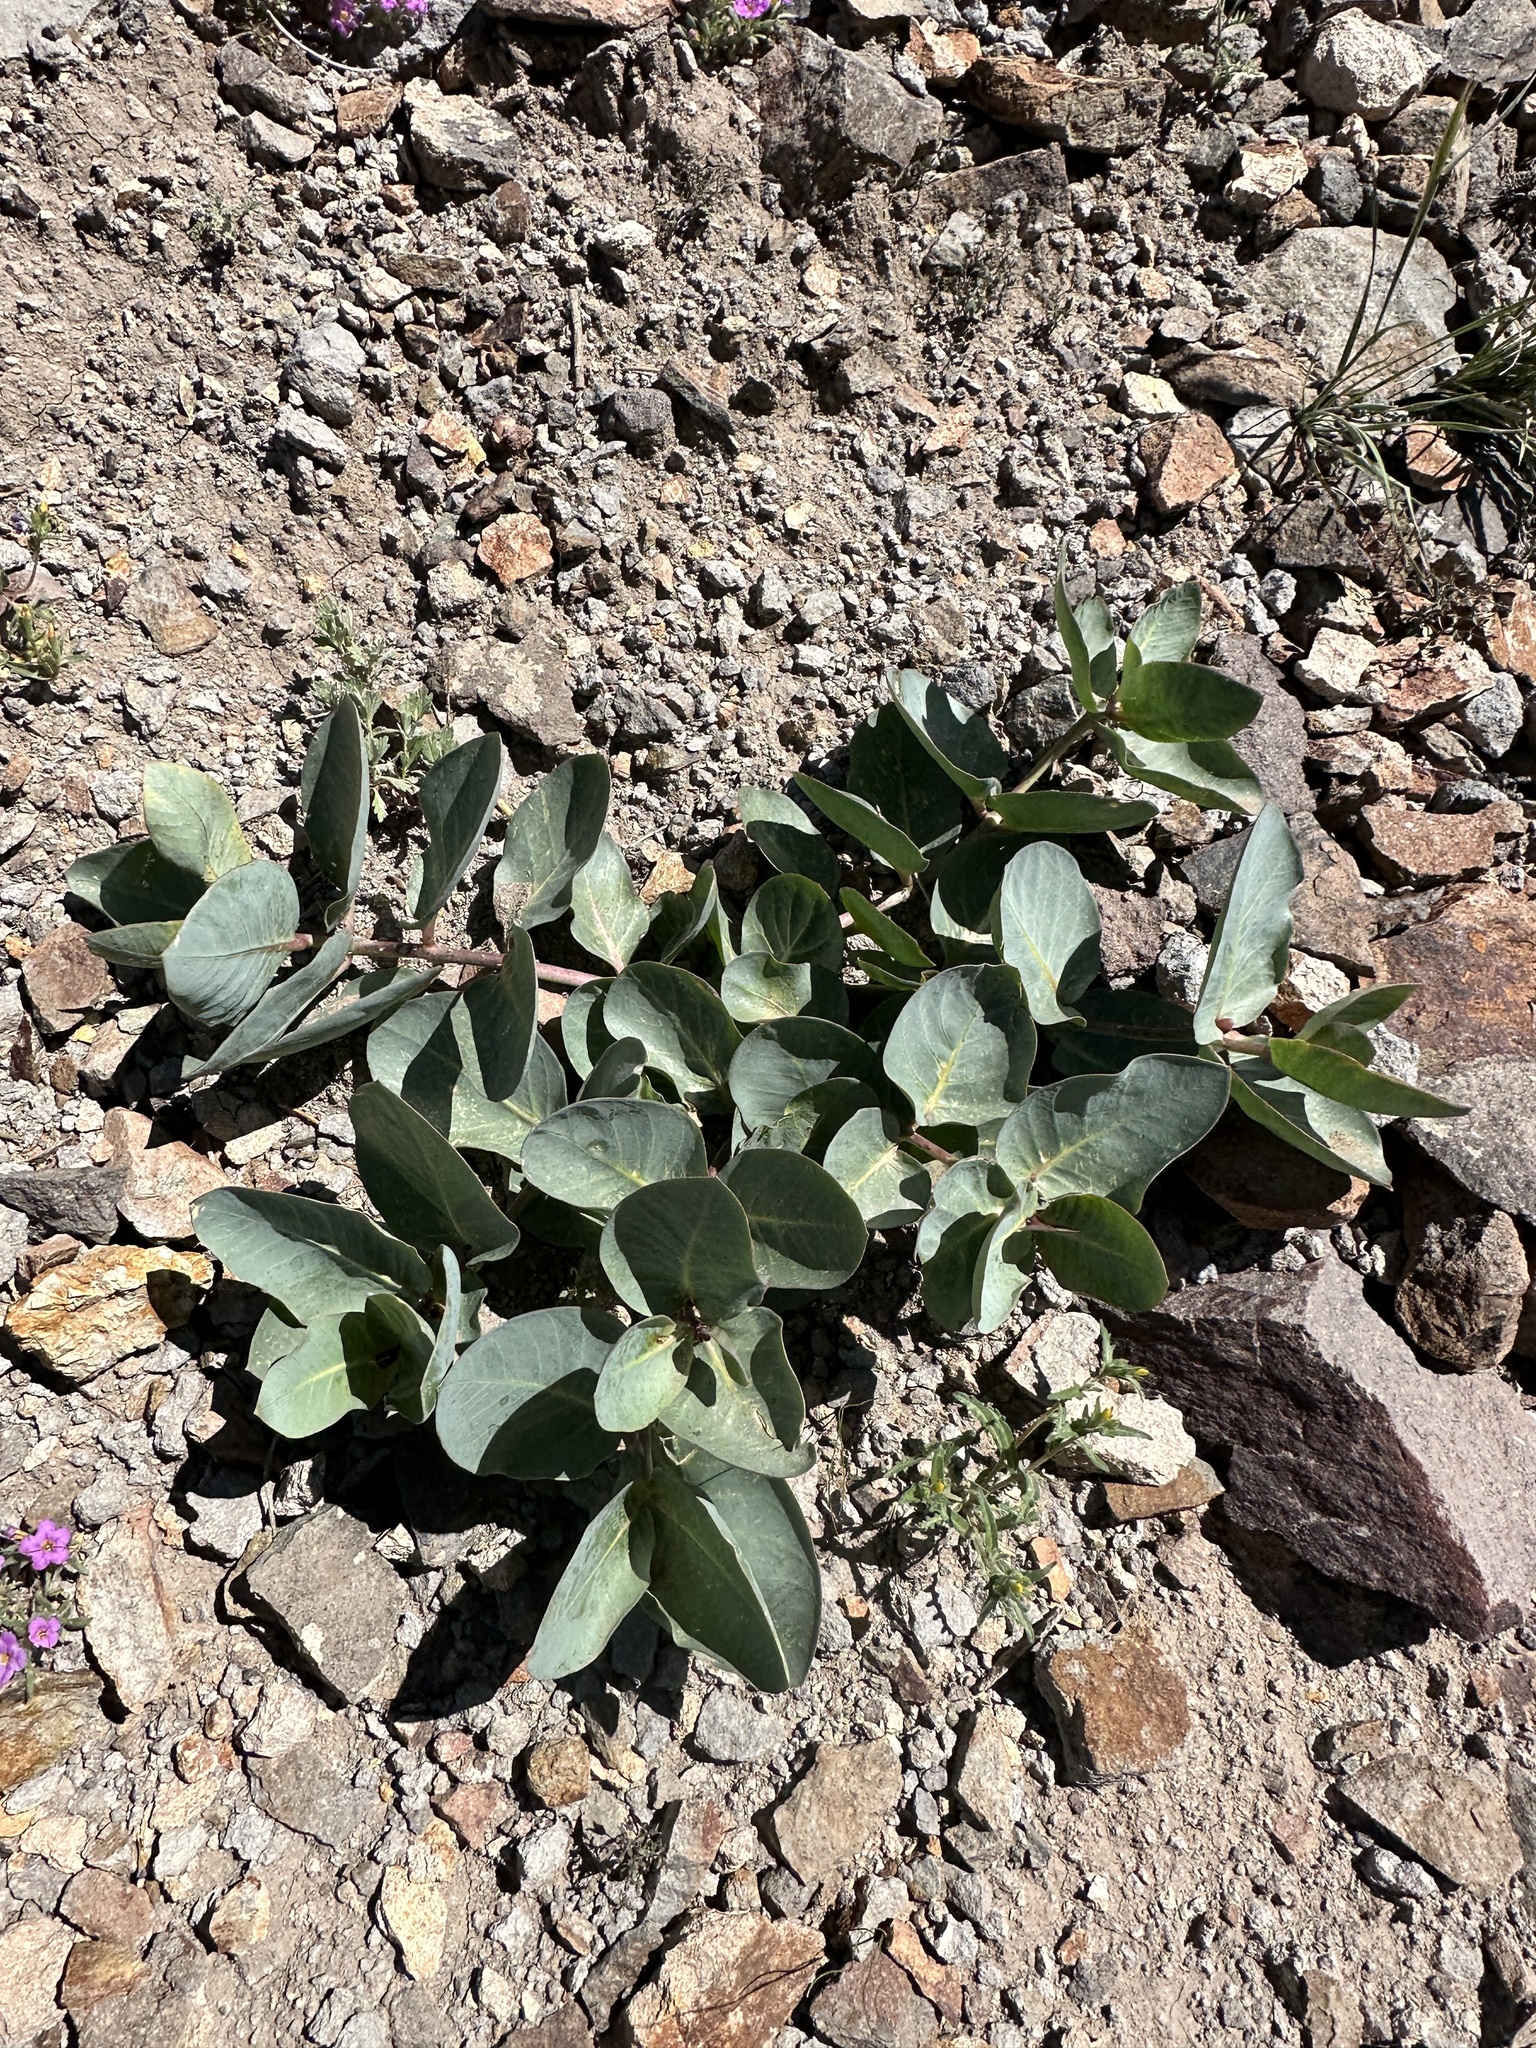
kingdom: Plantae
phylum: Tracheophyta
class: Magnoliopsida
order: Gentianales
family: Apocynaceae
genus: Asclepias
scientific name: Asclepias cryptoceras
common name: Humboldt mountains milkweed
